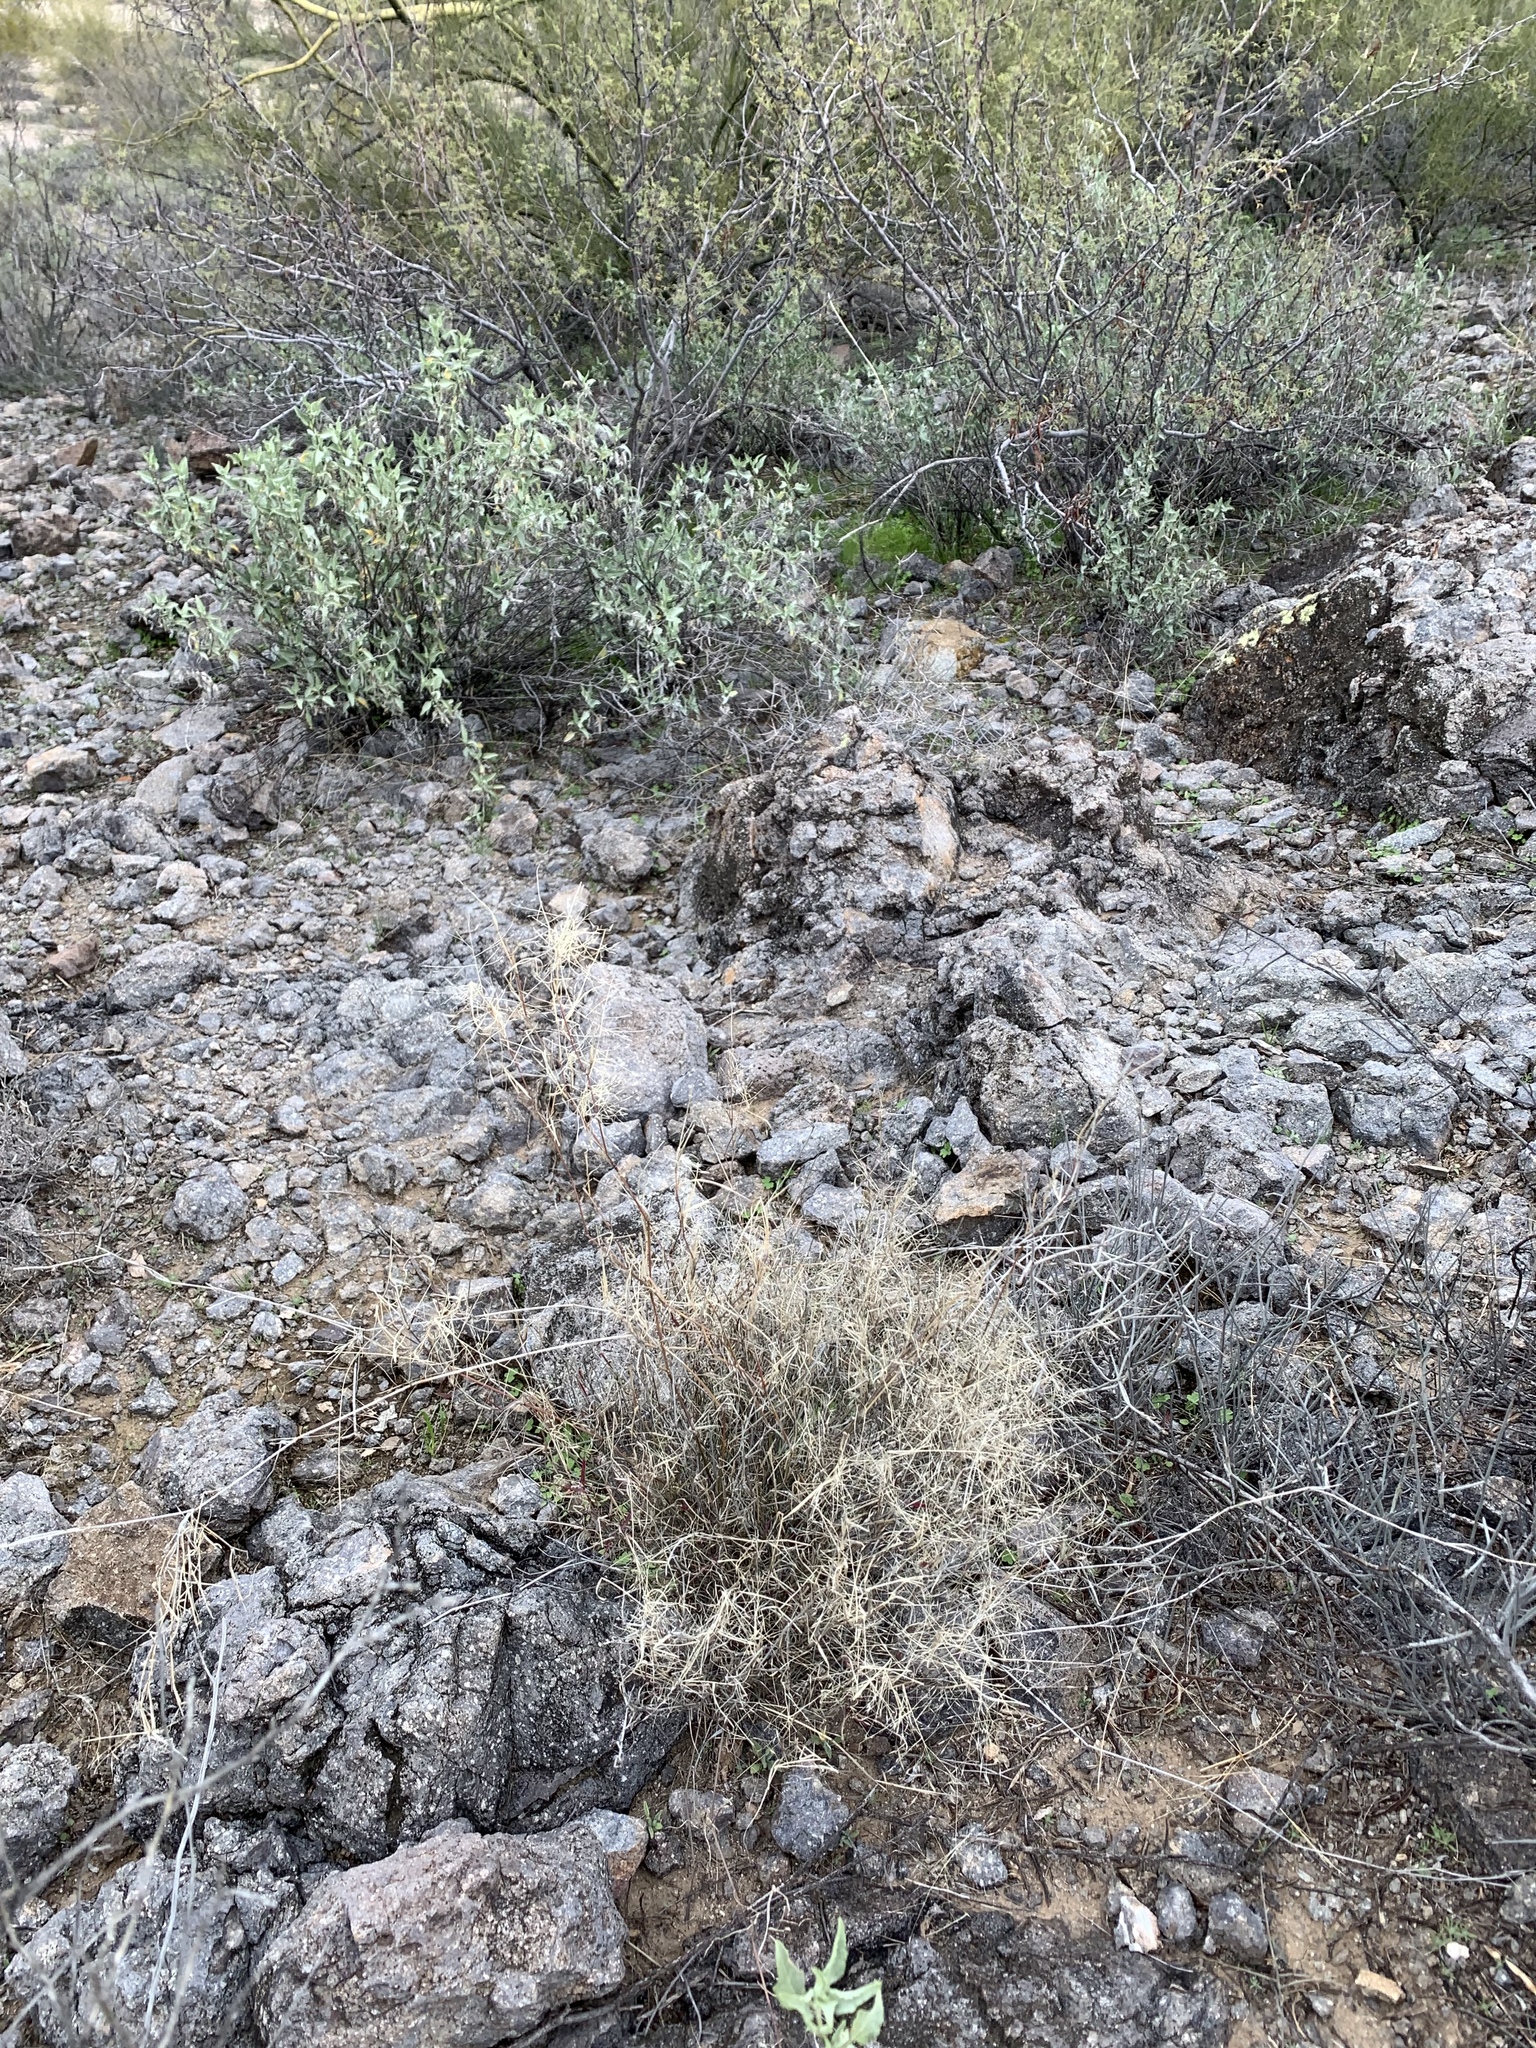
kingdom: Plantae
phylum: Tracheophyta
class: Liliopsida
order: Poales
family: Poaceae
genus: Muhlenbergia
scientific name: Muhlenbergia porteri
